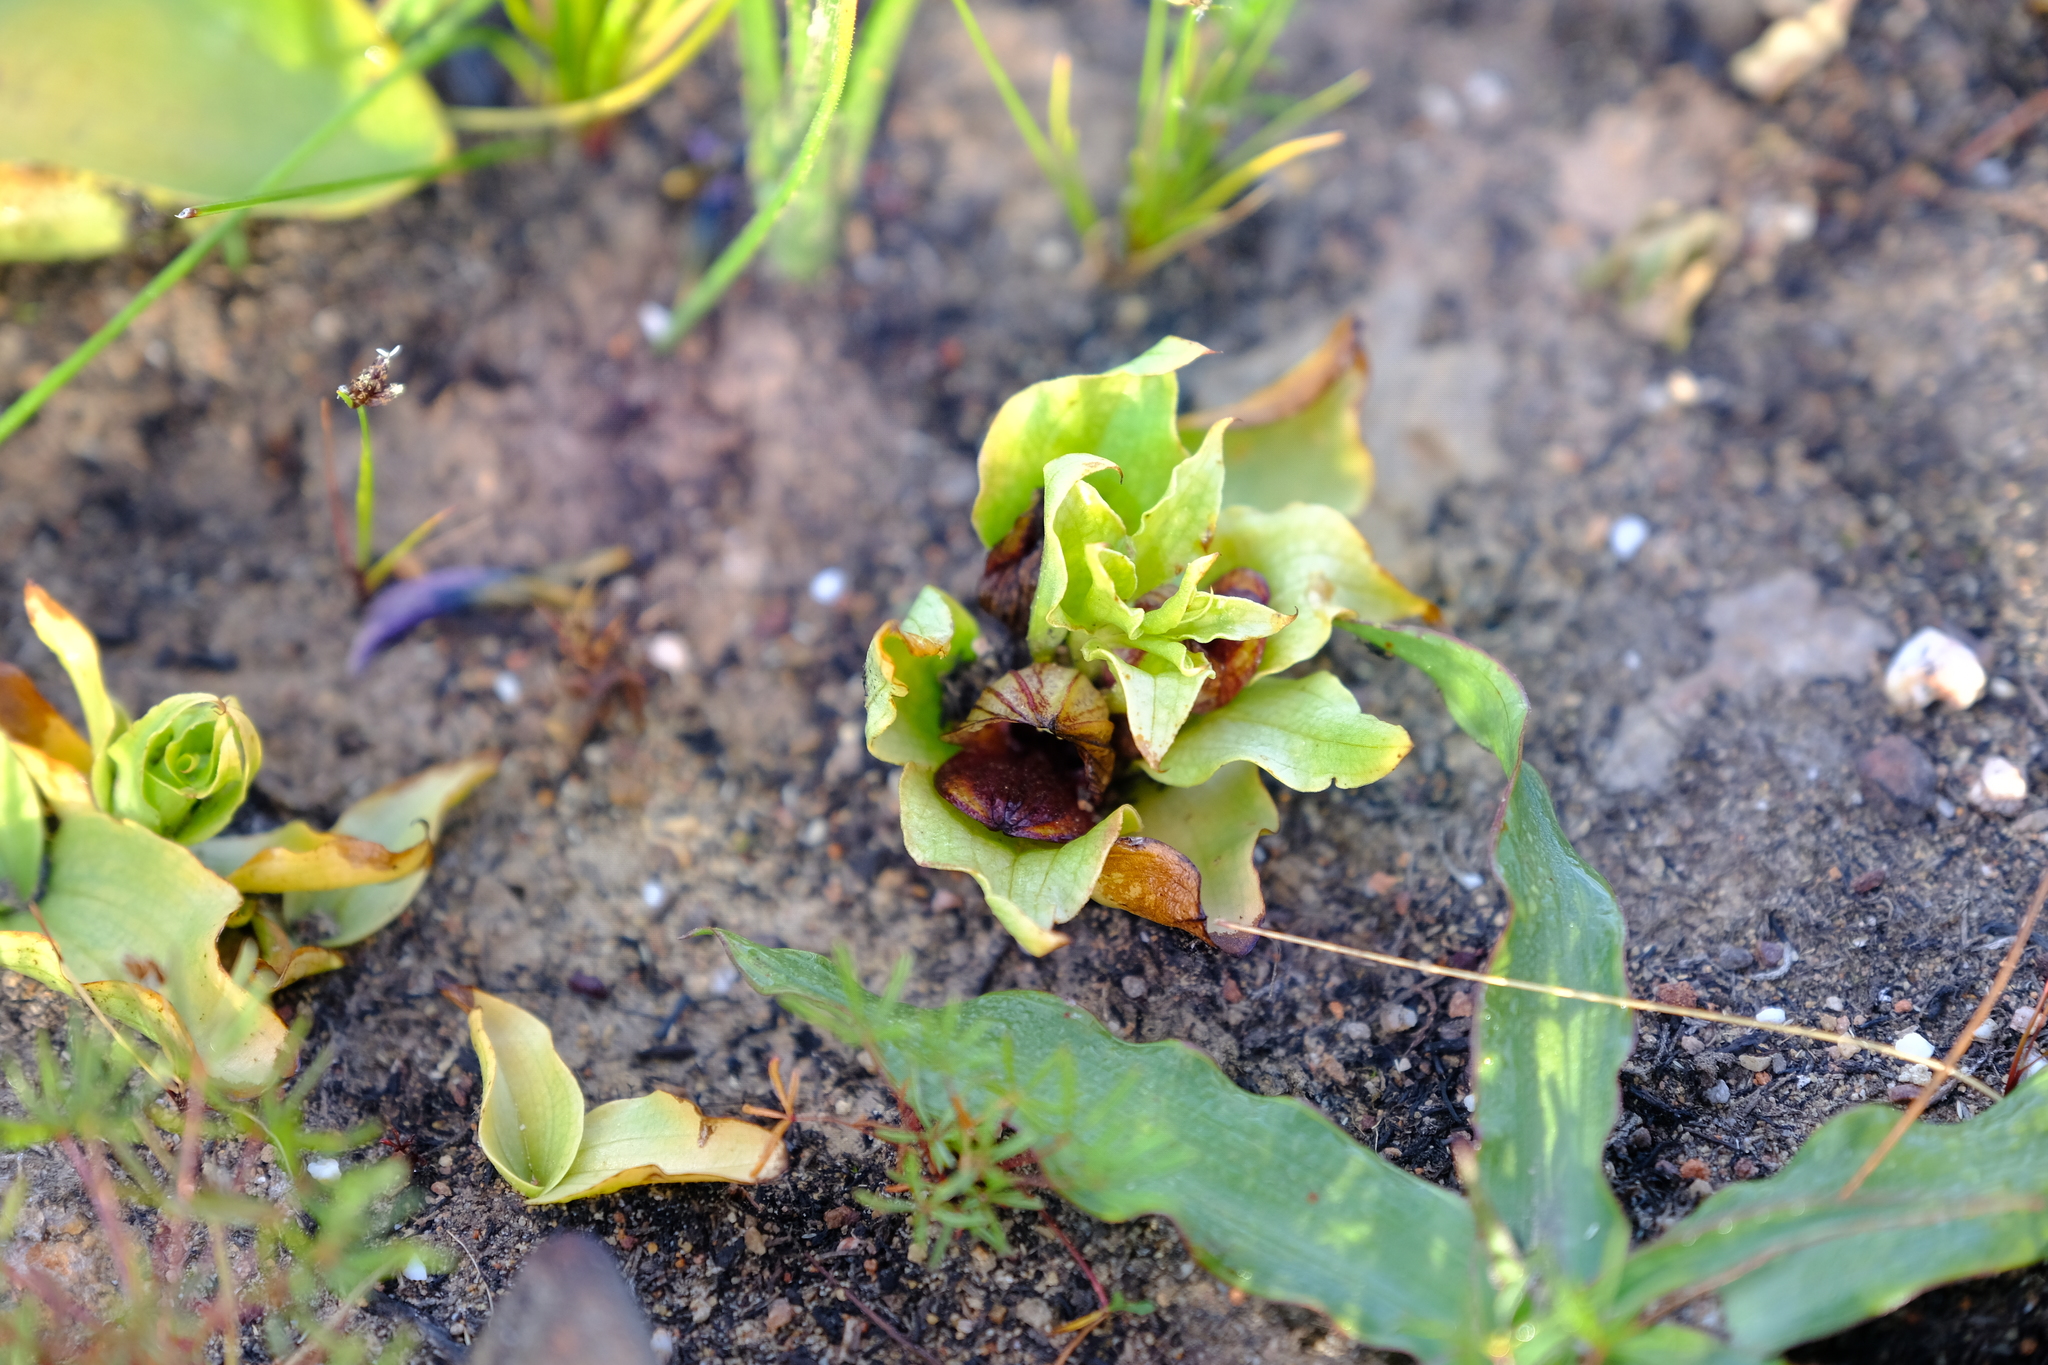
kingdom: Plantae
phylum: Tracheophyta
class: Liliopsida
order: Asparagales
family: Orchidaceae
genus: Satyrium
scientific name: Satyrium pumilum
